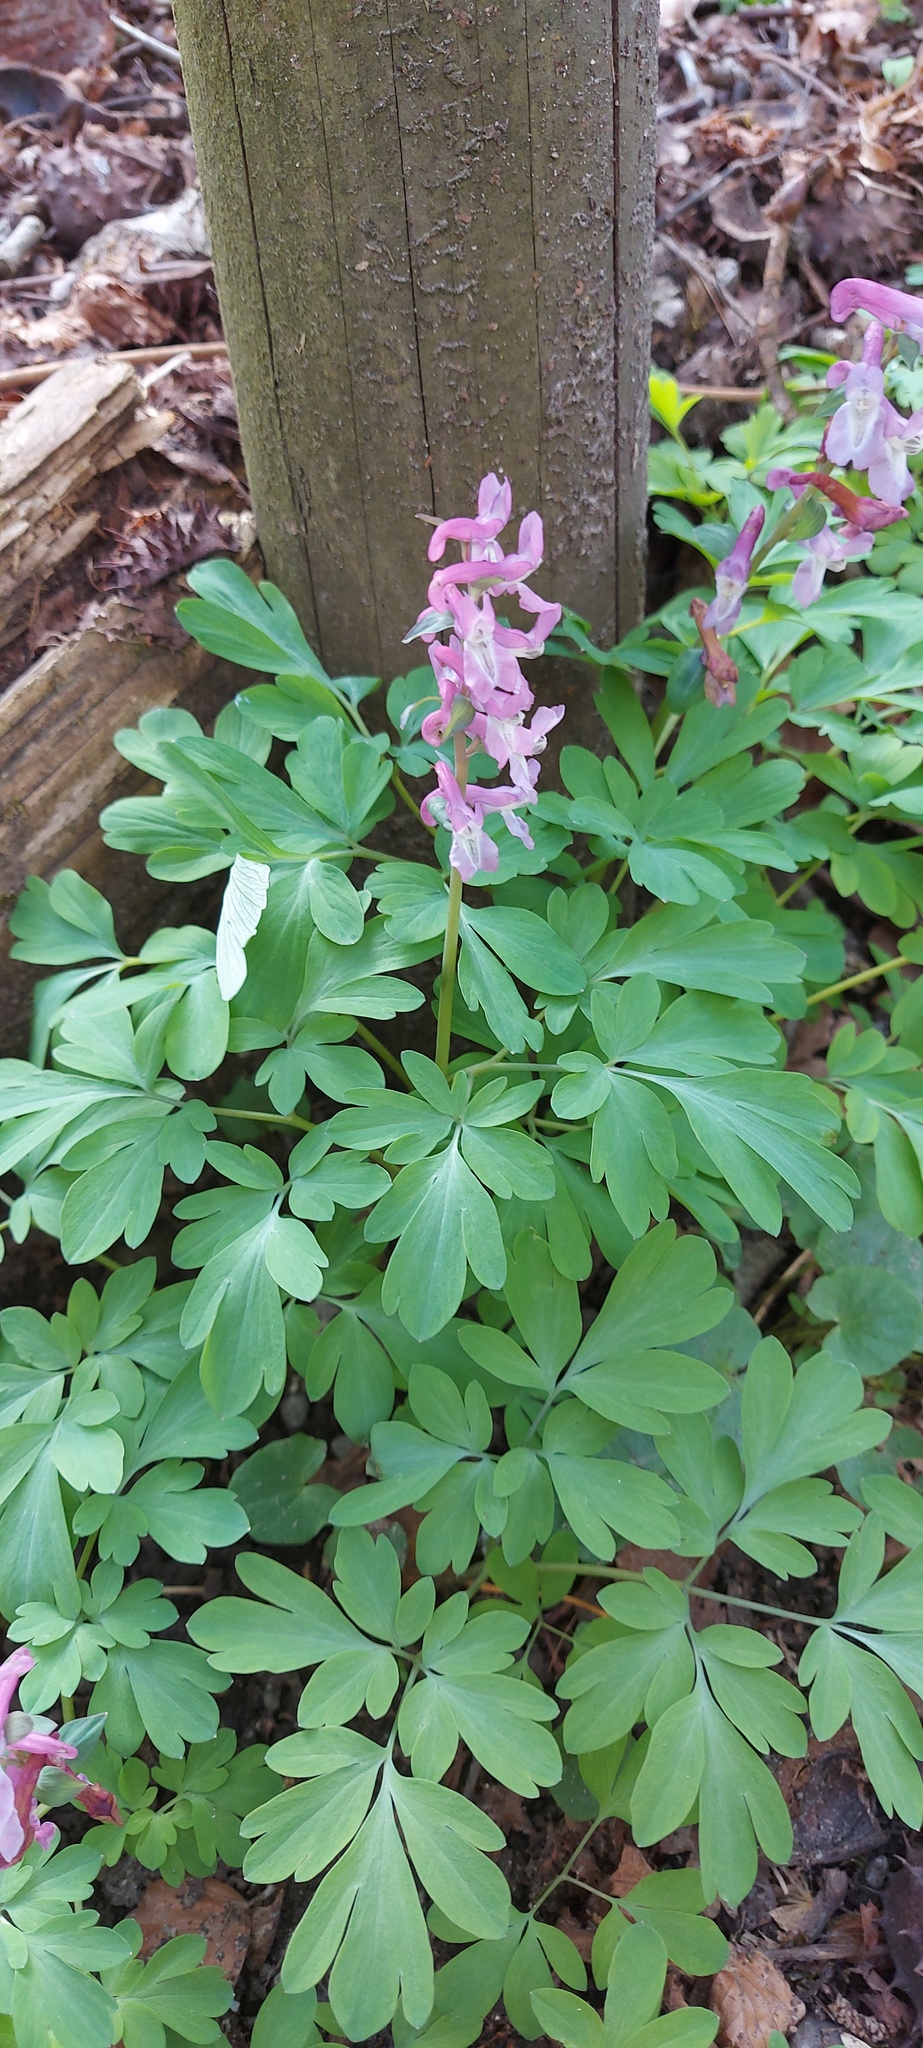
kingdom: Plantae
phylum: Tracheophyta
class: Magnoliopsida
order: Ranunculales
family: Papaveraceae
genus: Corydalis
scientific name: Corydalis cava
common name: Hollowroot
